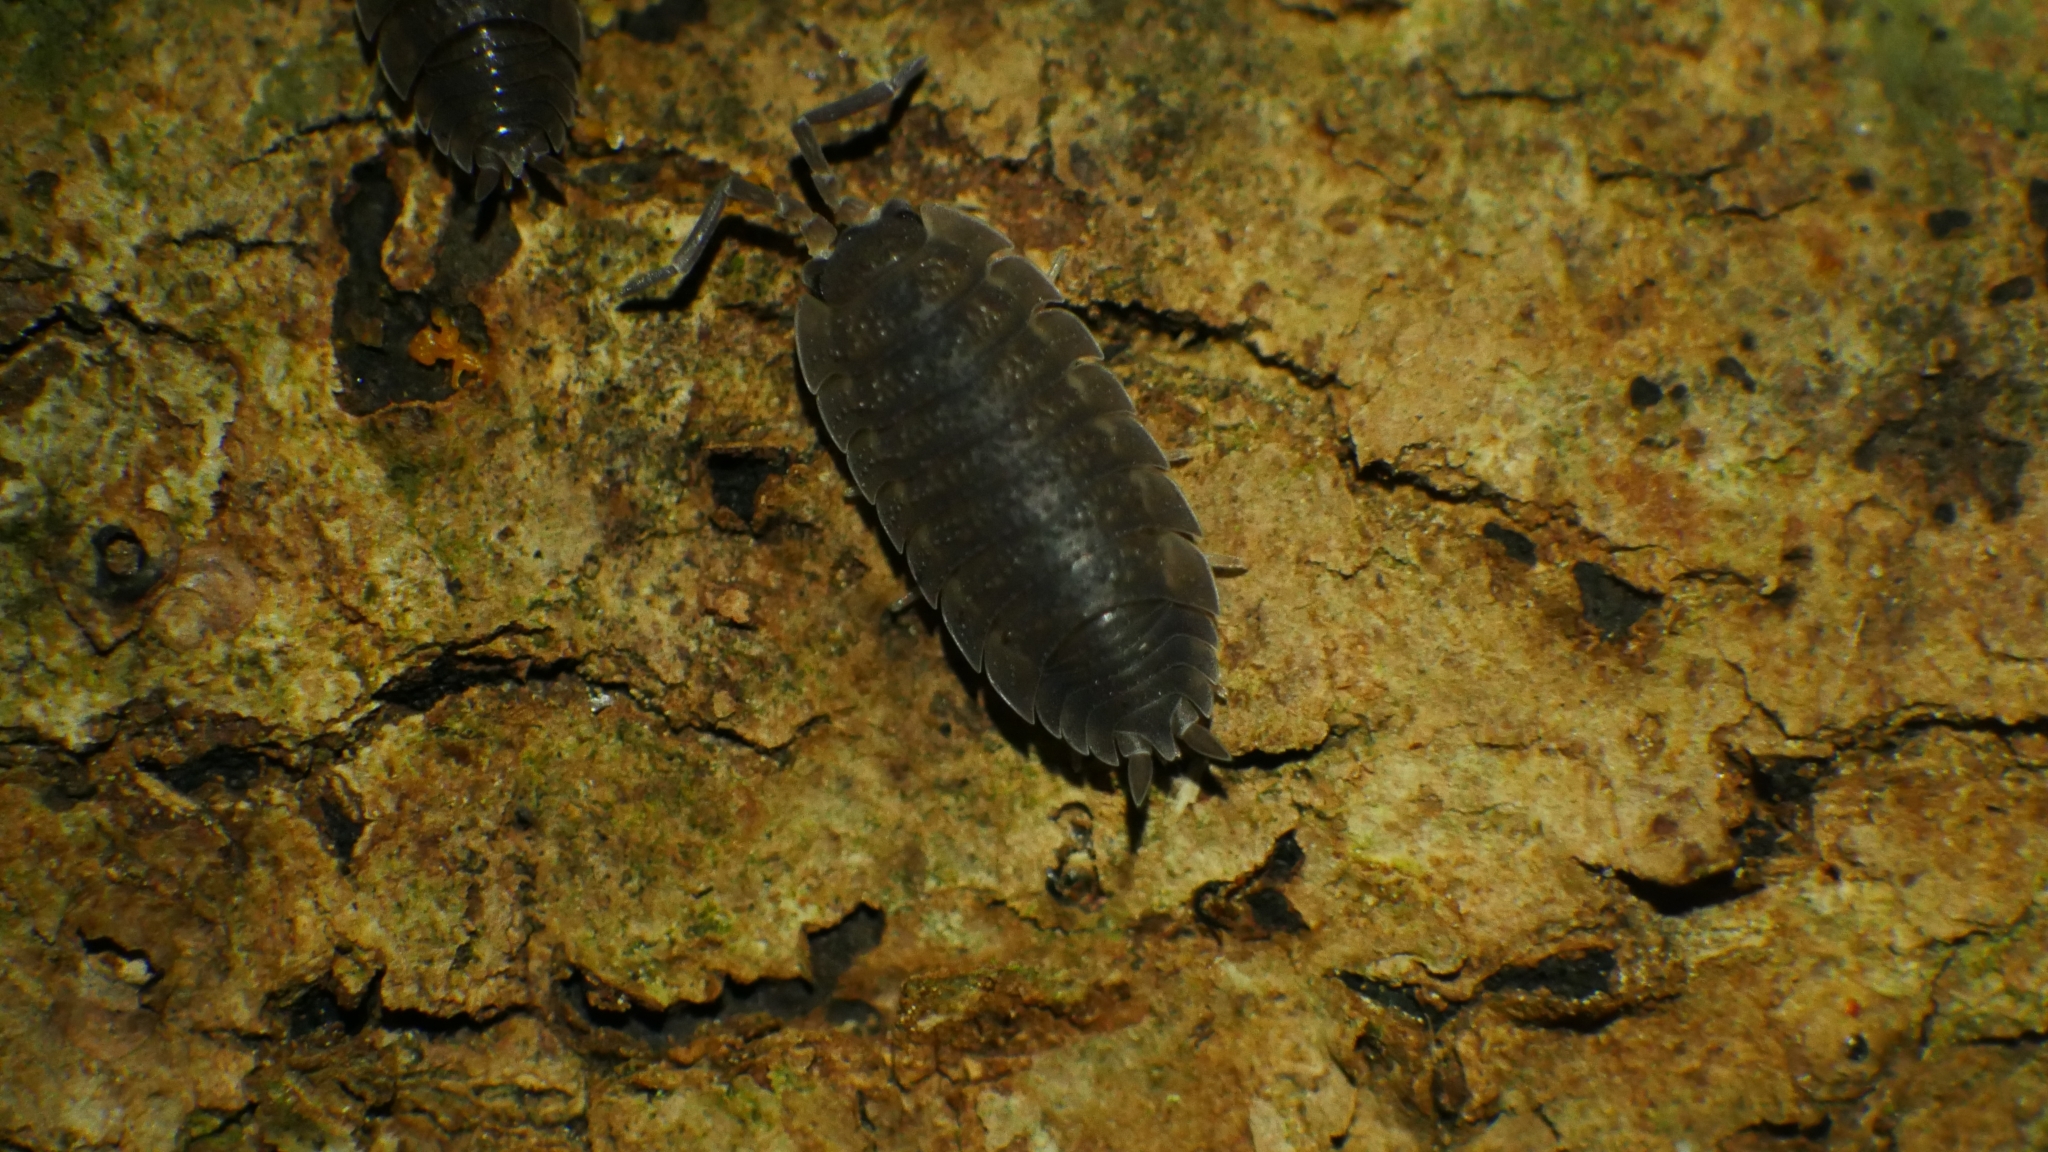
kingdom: Animalia
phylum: Arthropoda
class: Malacostraca
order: Isopoda
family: Porcellionidae
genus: Porcellio
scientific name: Porcellio scaber
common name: Common rough woodlouse
